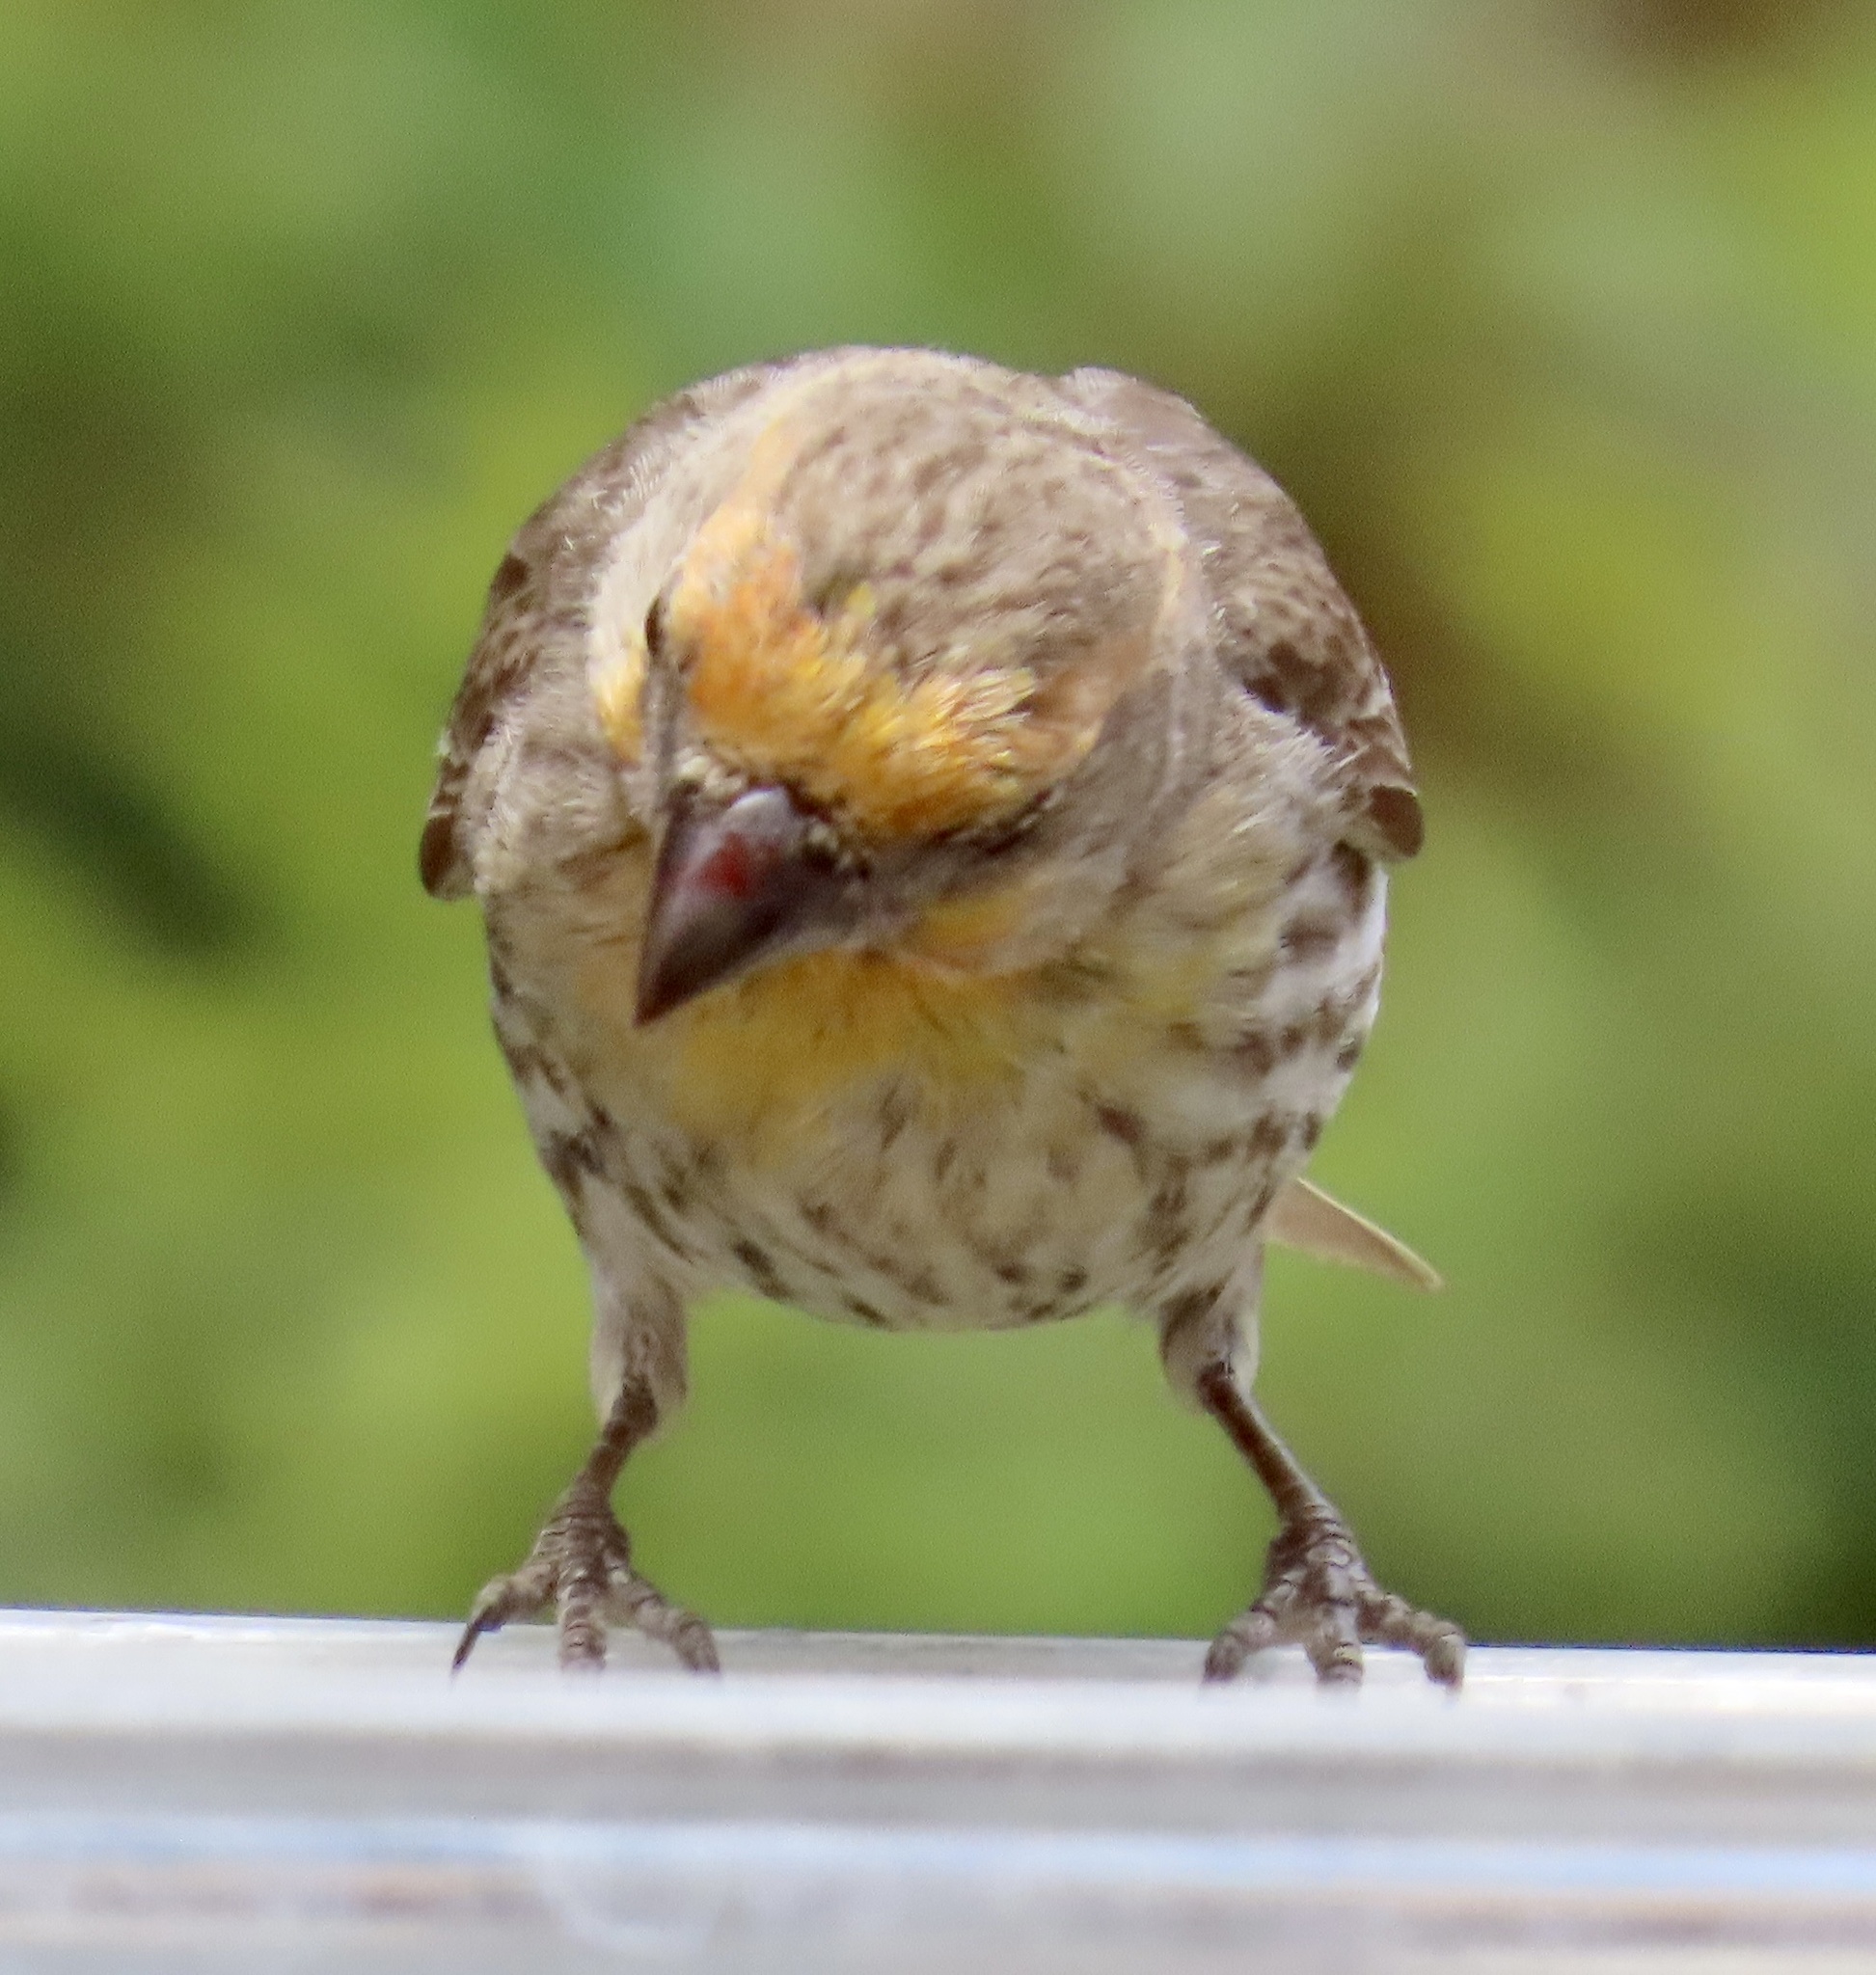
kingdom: Animalia
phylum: Chordata
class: Aves
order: Passeriformes
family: Fringillidae
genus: Haemorhous
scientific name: Haemorhous mexicanus
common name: House finch
